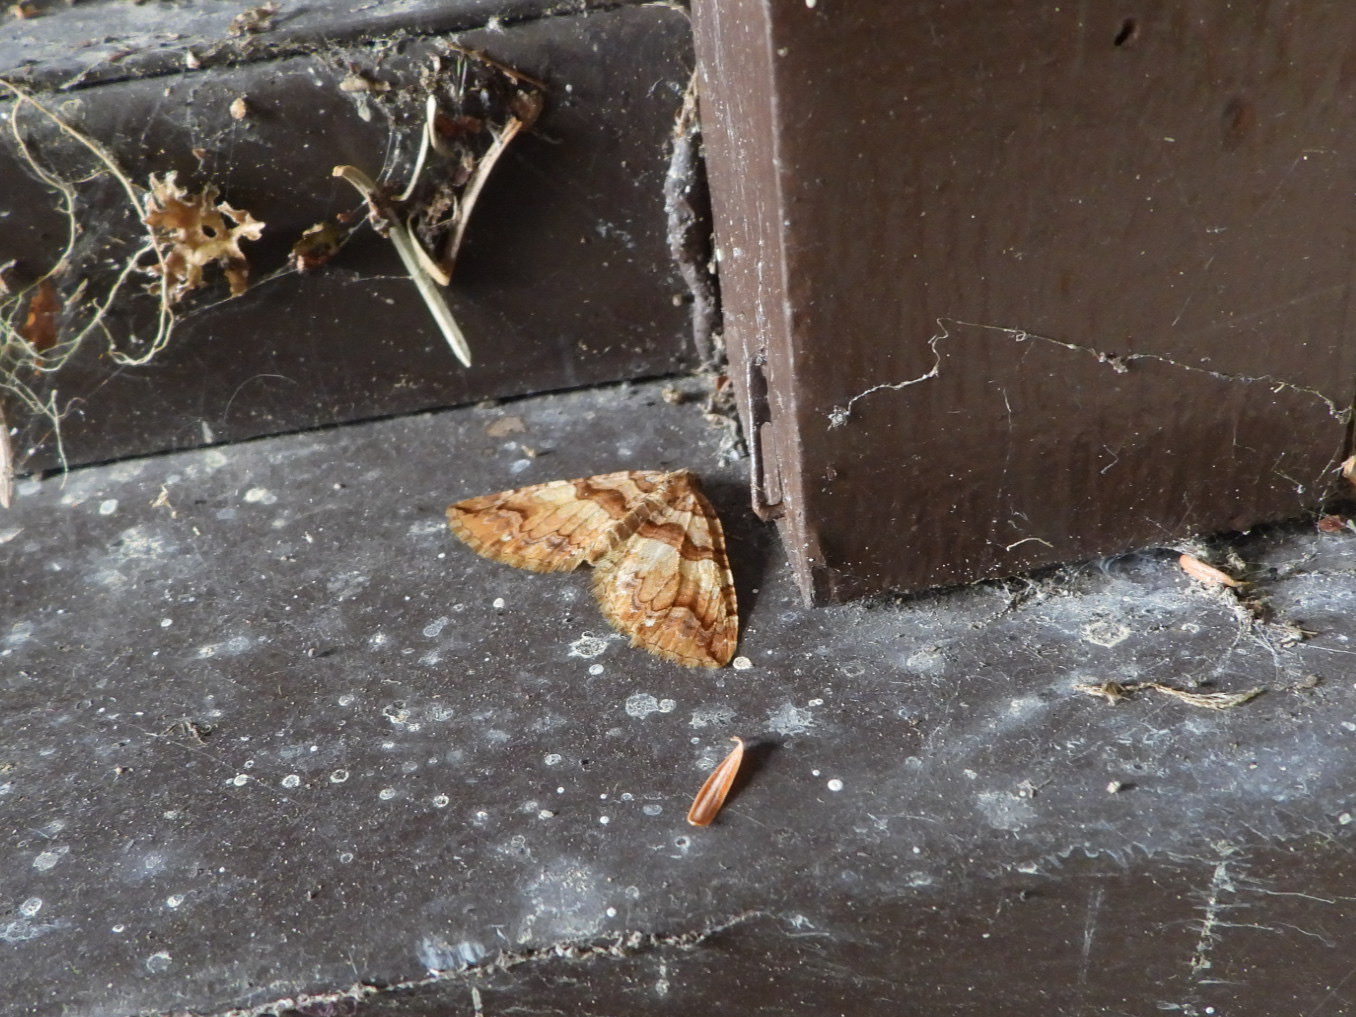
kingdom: Animalia
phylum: Arthropoda
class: Insecta
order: Lepidoptera
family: Geometridae
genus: Anticlea
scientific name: Anticlea vasiliata
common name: Variable carpet
